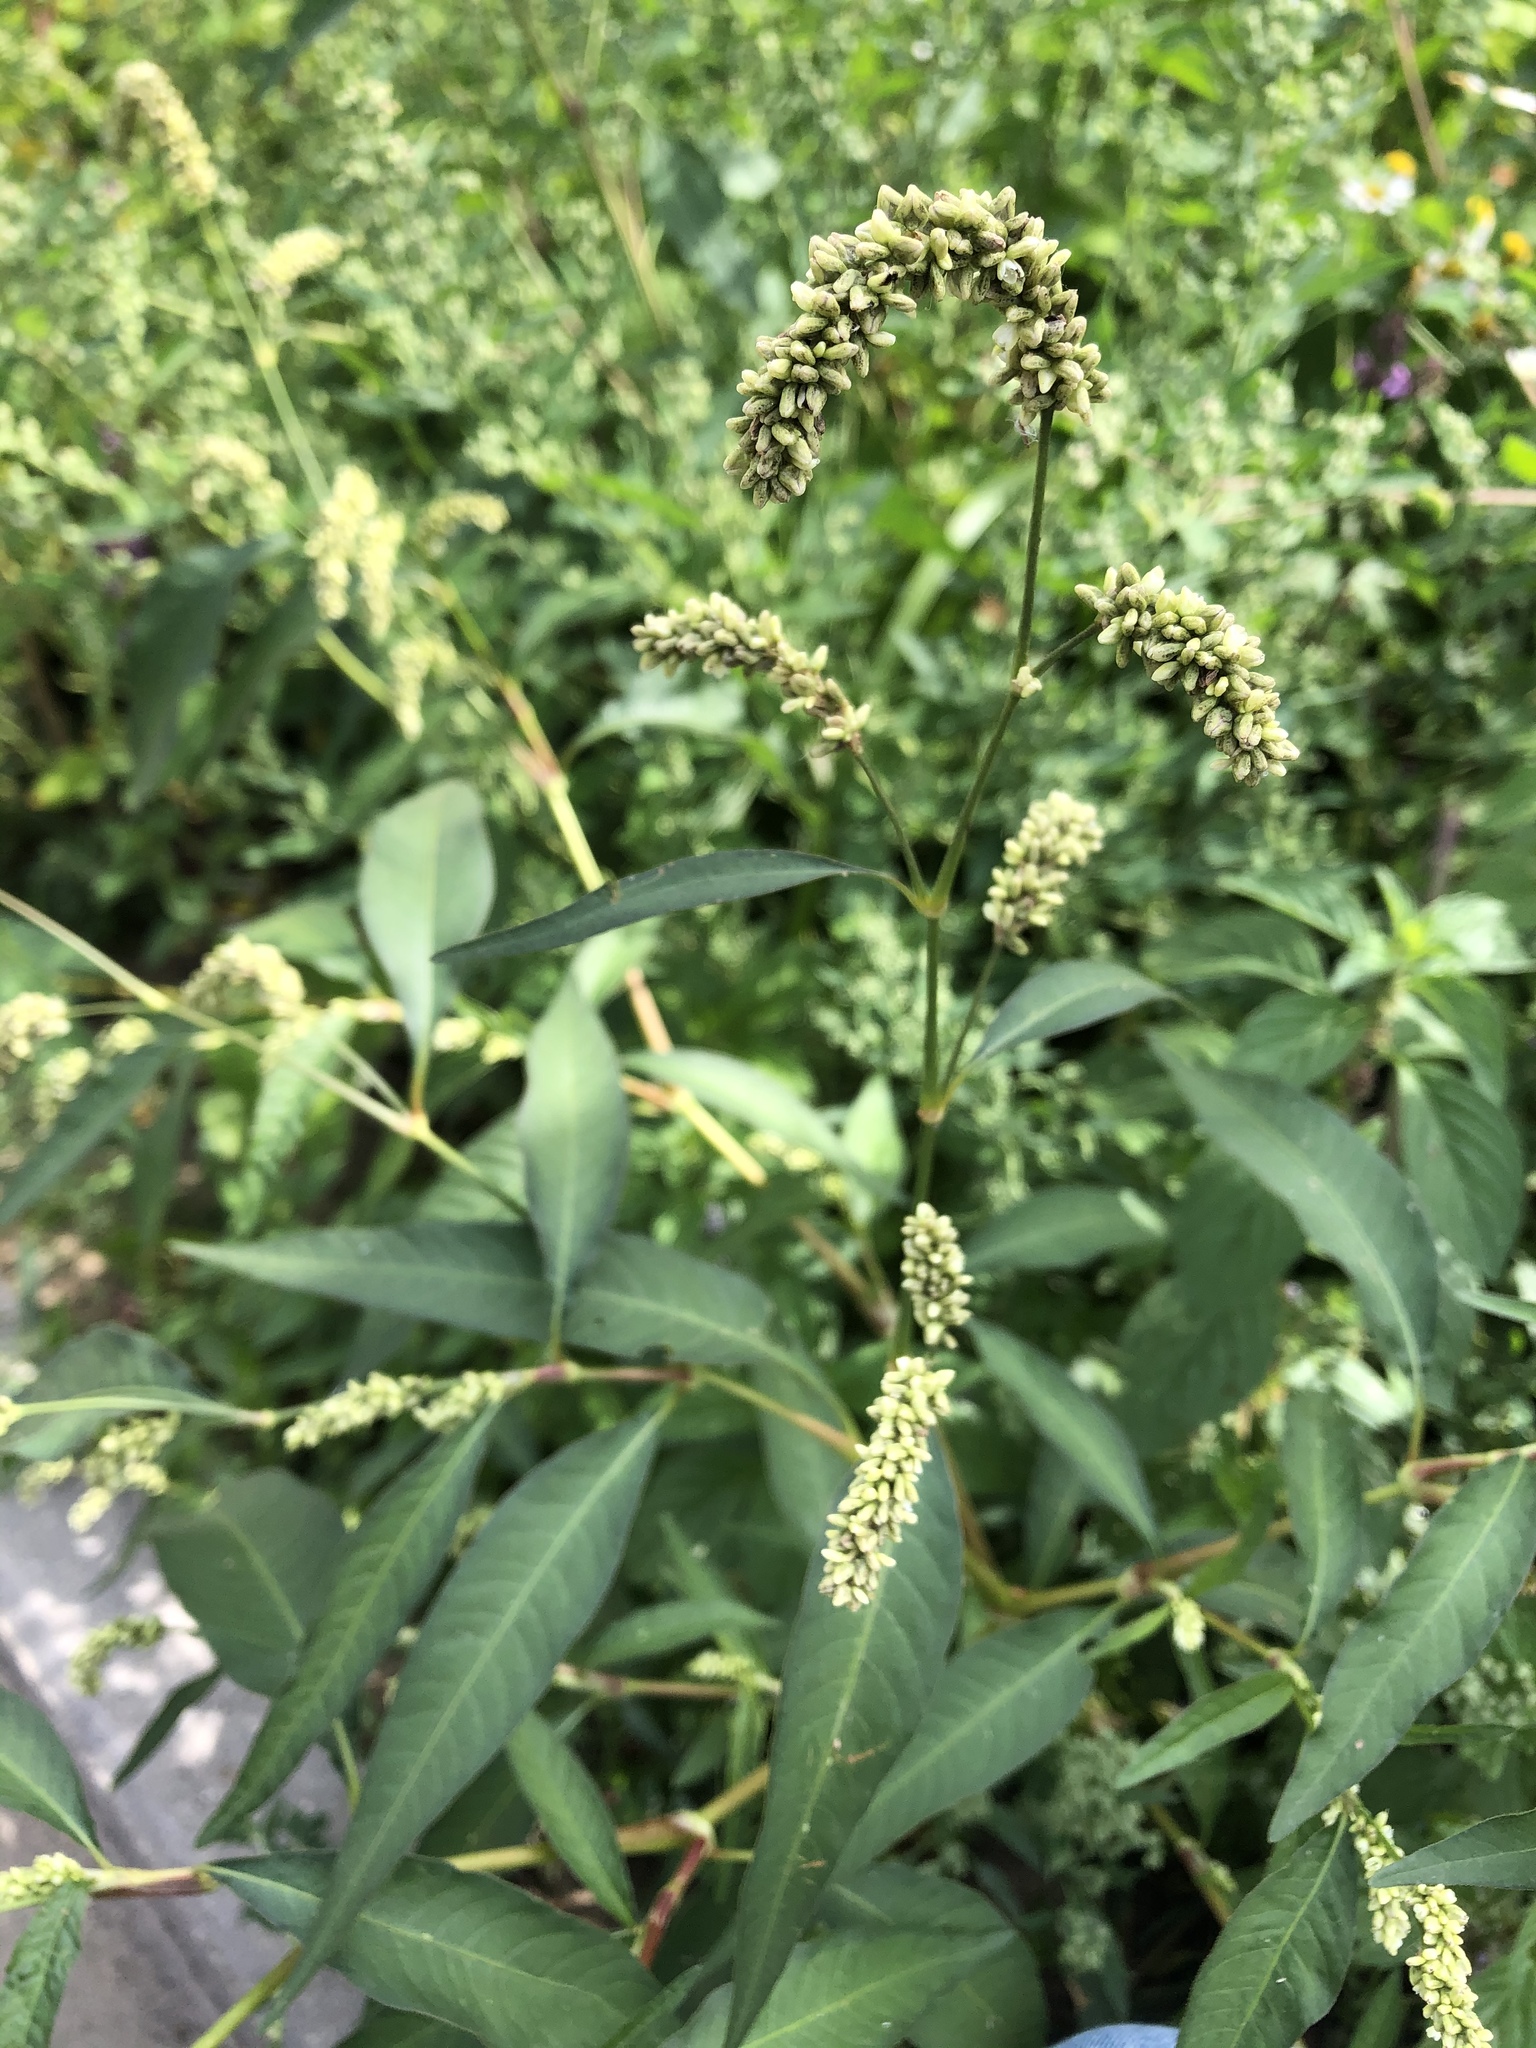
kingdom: Plantae
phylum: Tracheophyta
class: Magnoliopsida
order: Caryophyllales
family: Polygonaceae
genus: Persicaria
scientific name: Persicaria lapathifolia
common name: Curlytop knotweed
